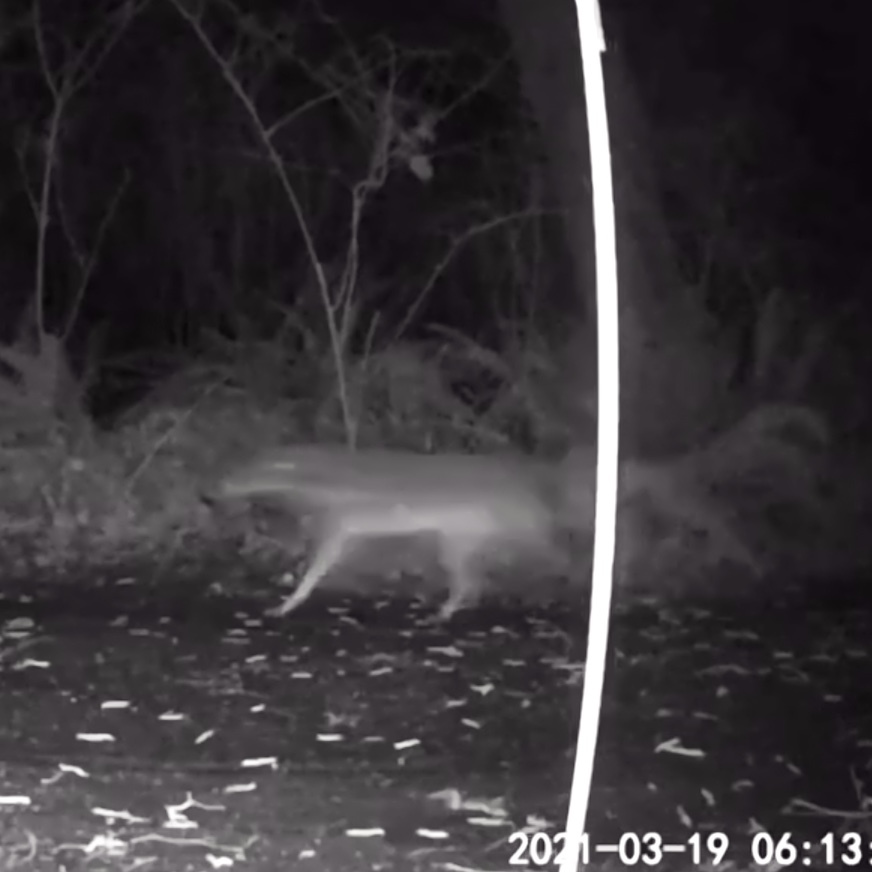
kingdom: Animalia
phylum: Chordata
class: Mammalia
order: Carnivora
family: Canidae
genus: Canis
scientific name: Canis latrans
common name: Coyote
